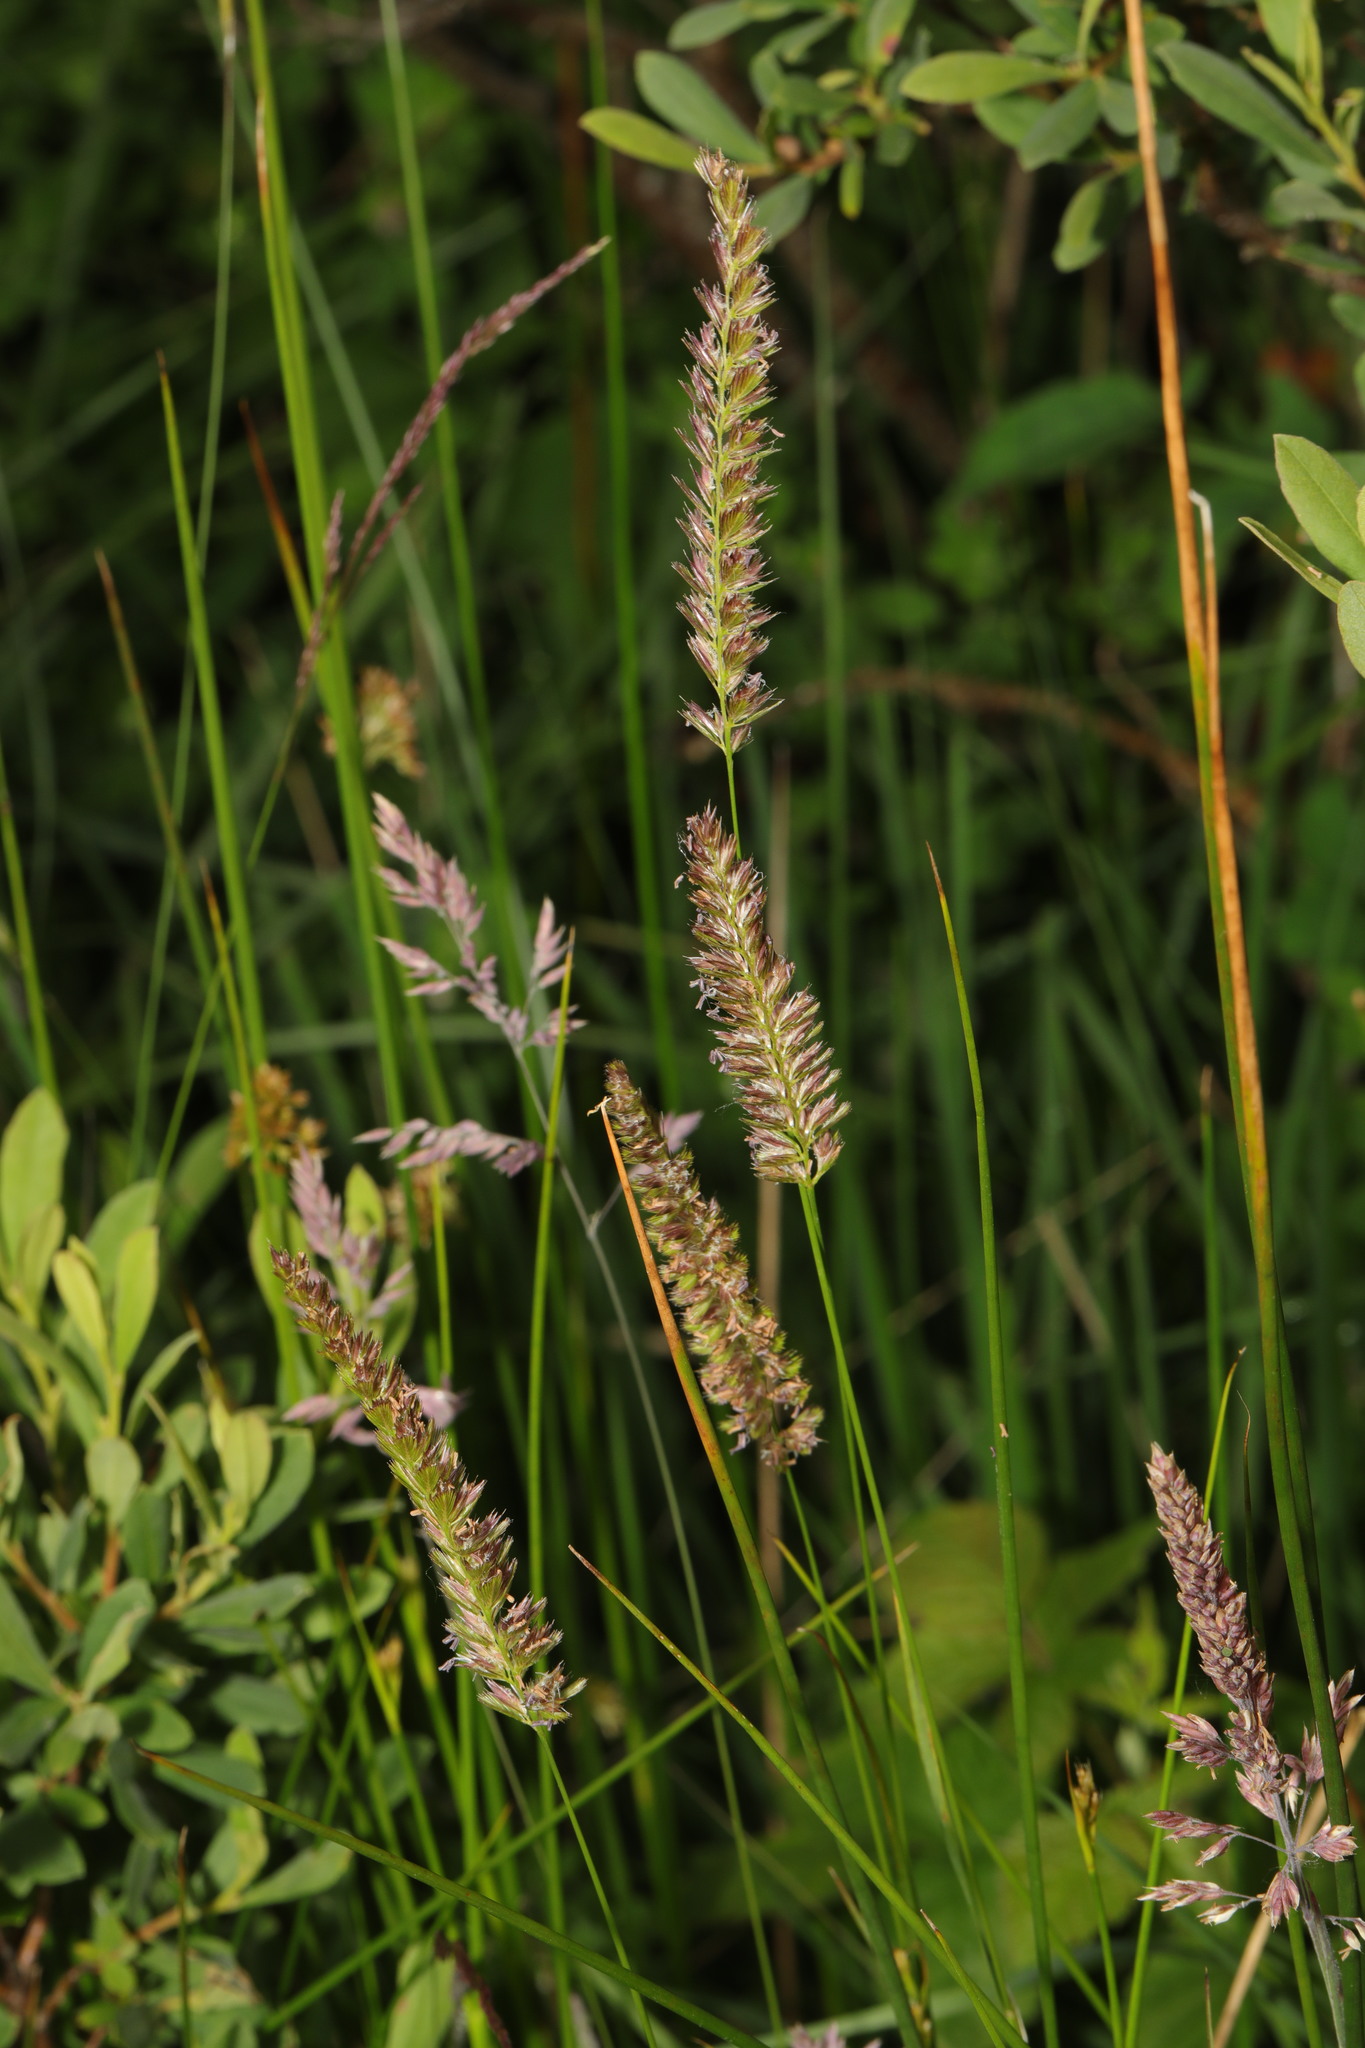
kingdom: Plantae
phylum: Tracheophyta
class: Liliopsida
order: Poales
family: Poaceae
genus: Cynosurus
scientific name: Cynosurus cristatus
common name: Crested dog's-tail
